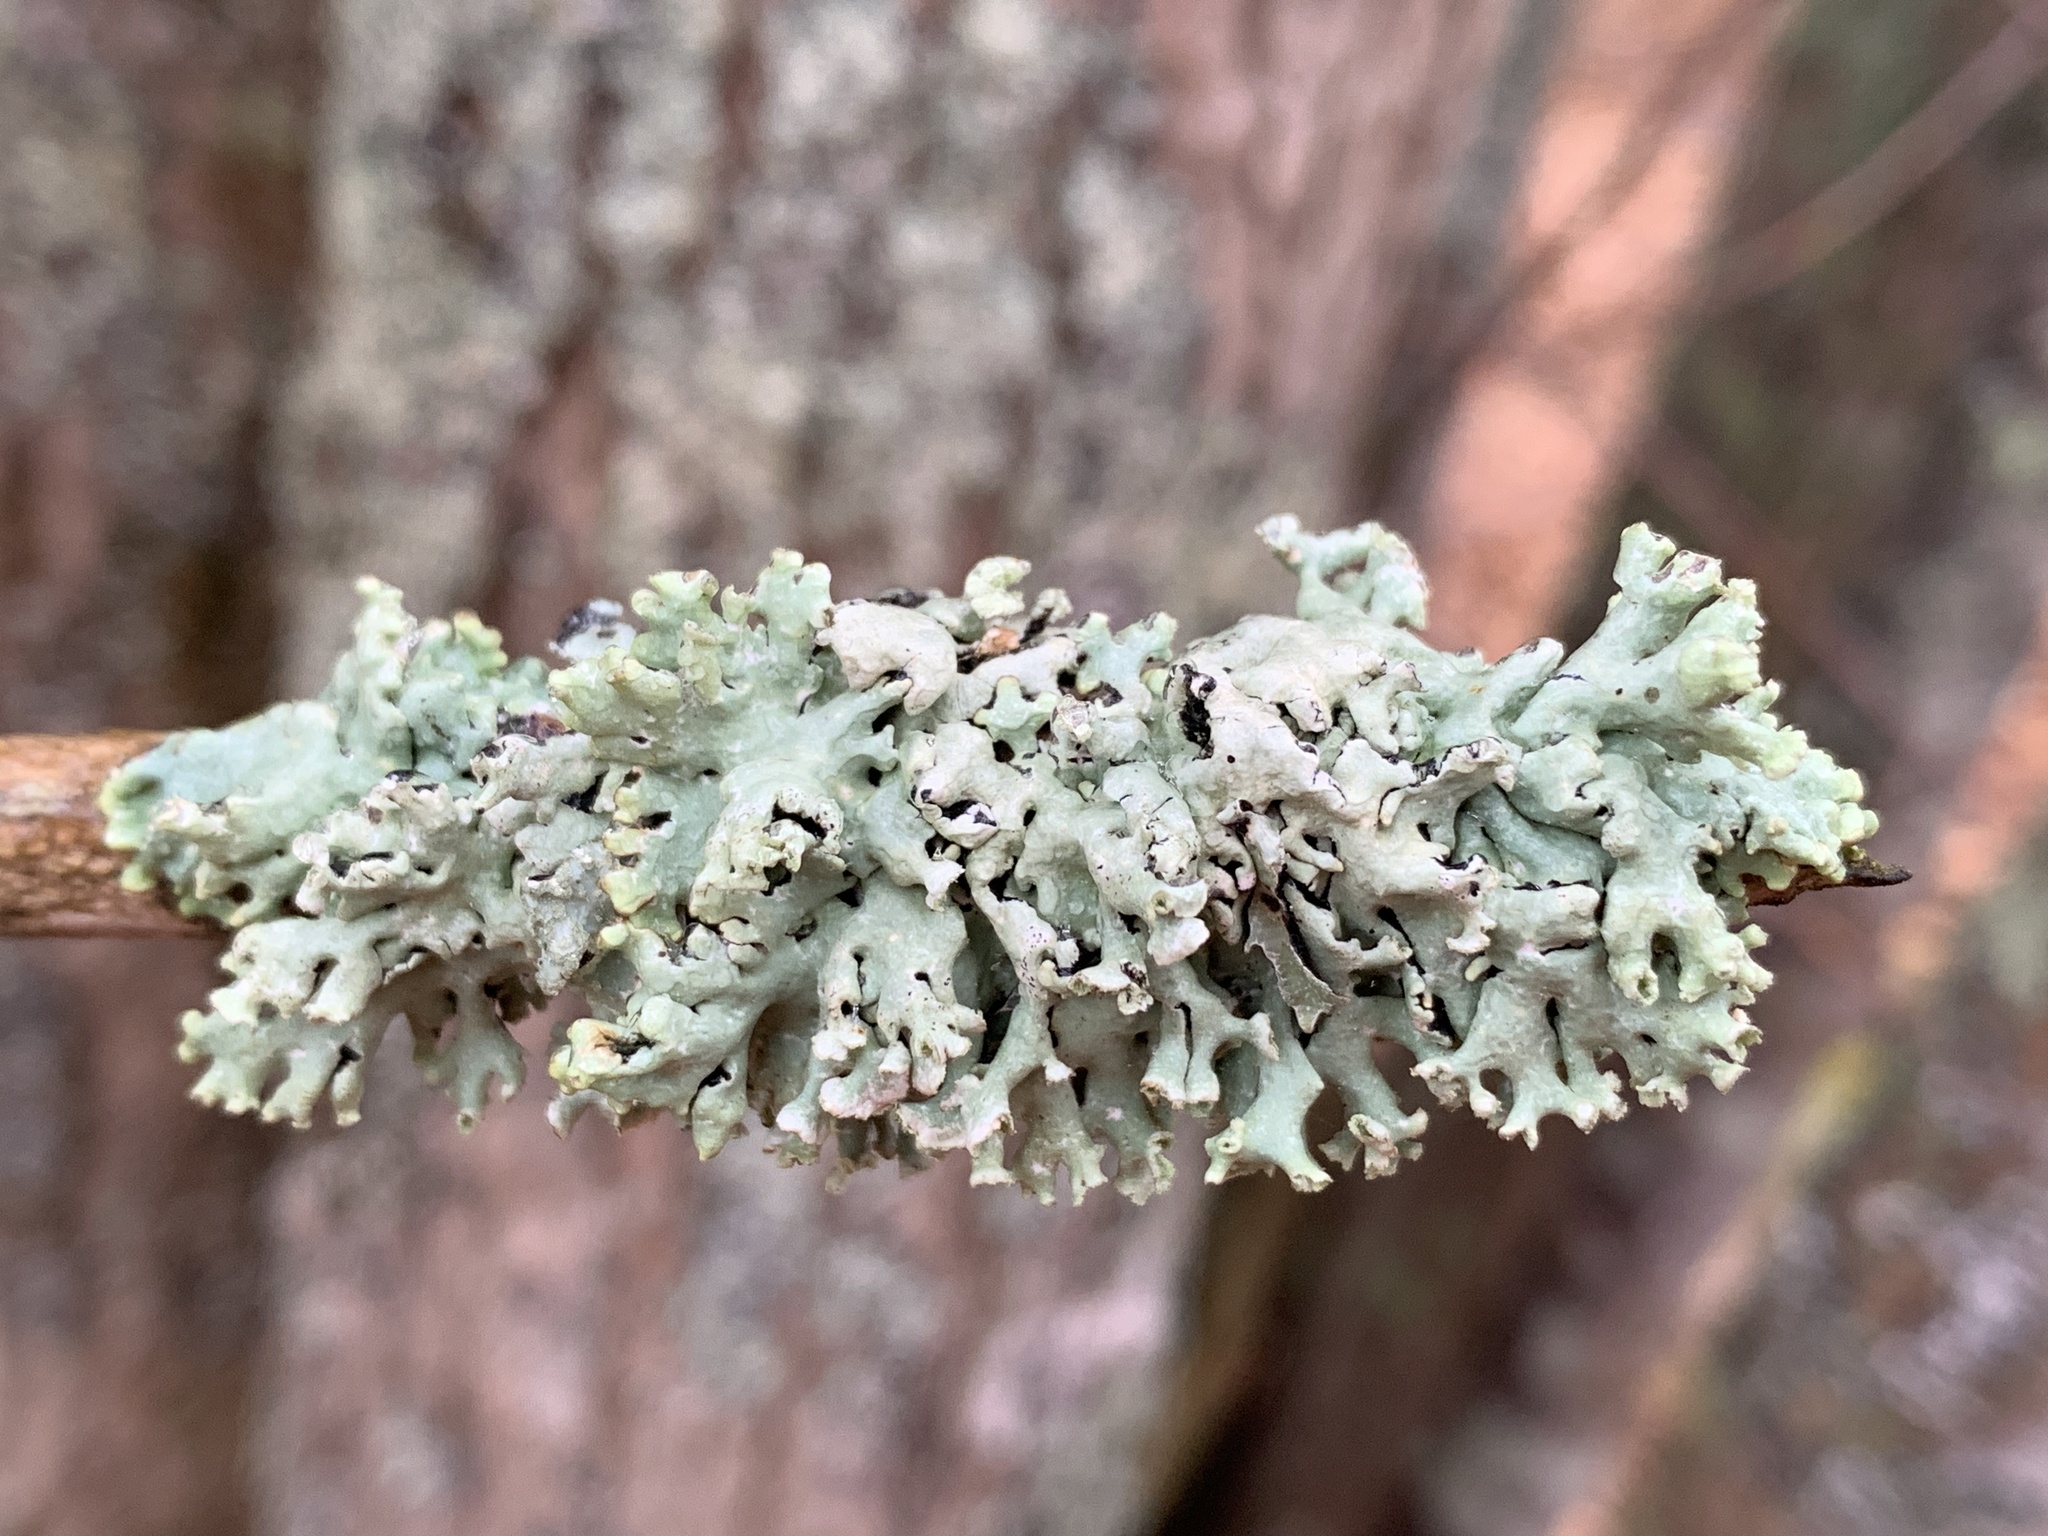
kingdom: Fungi
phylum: Ascomycota
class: Lecanoromycetes
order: Lecanorales
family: Parmeliaceae
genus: Hypogymnia
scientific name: Hypogymnia physodes
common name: Dark crottle
